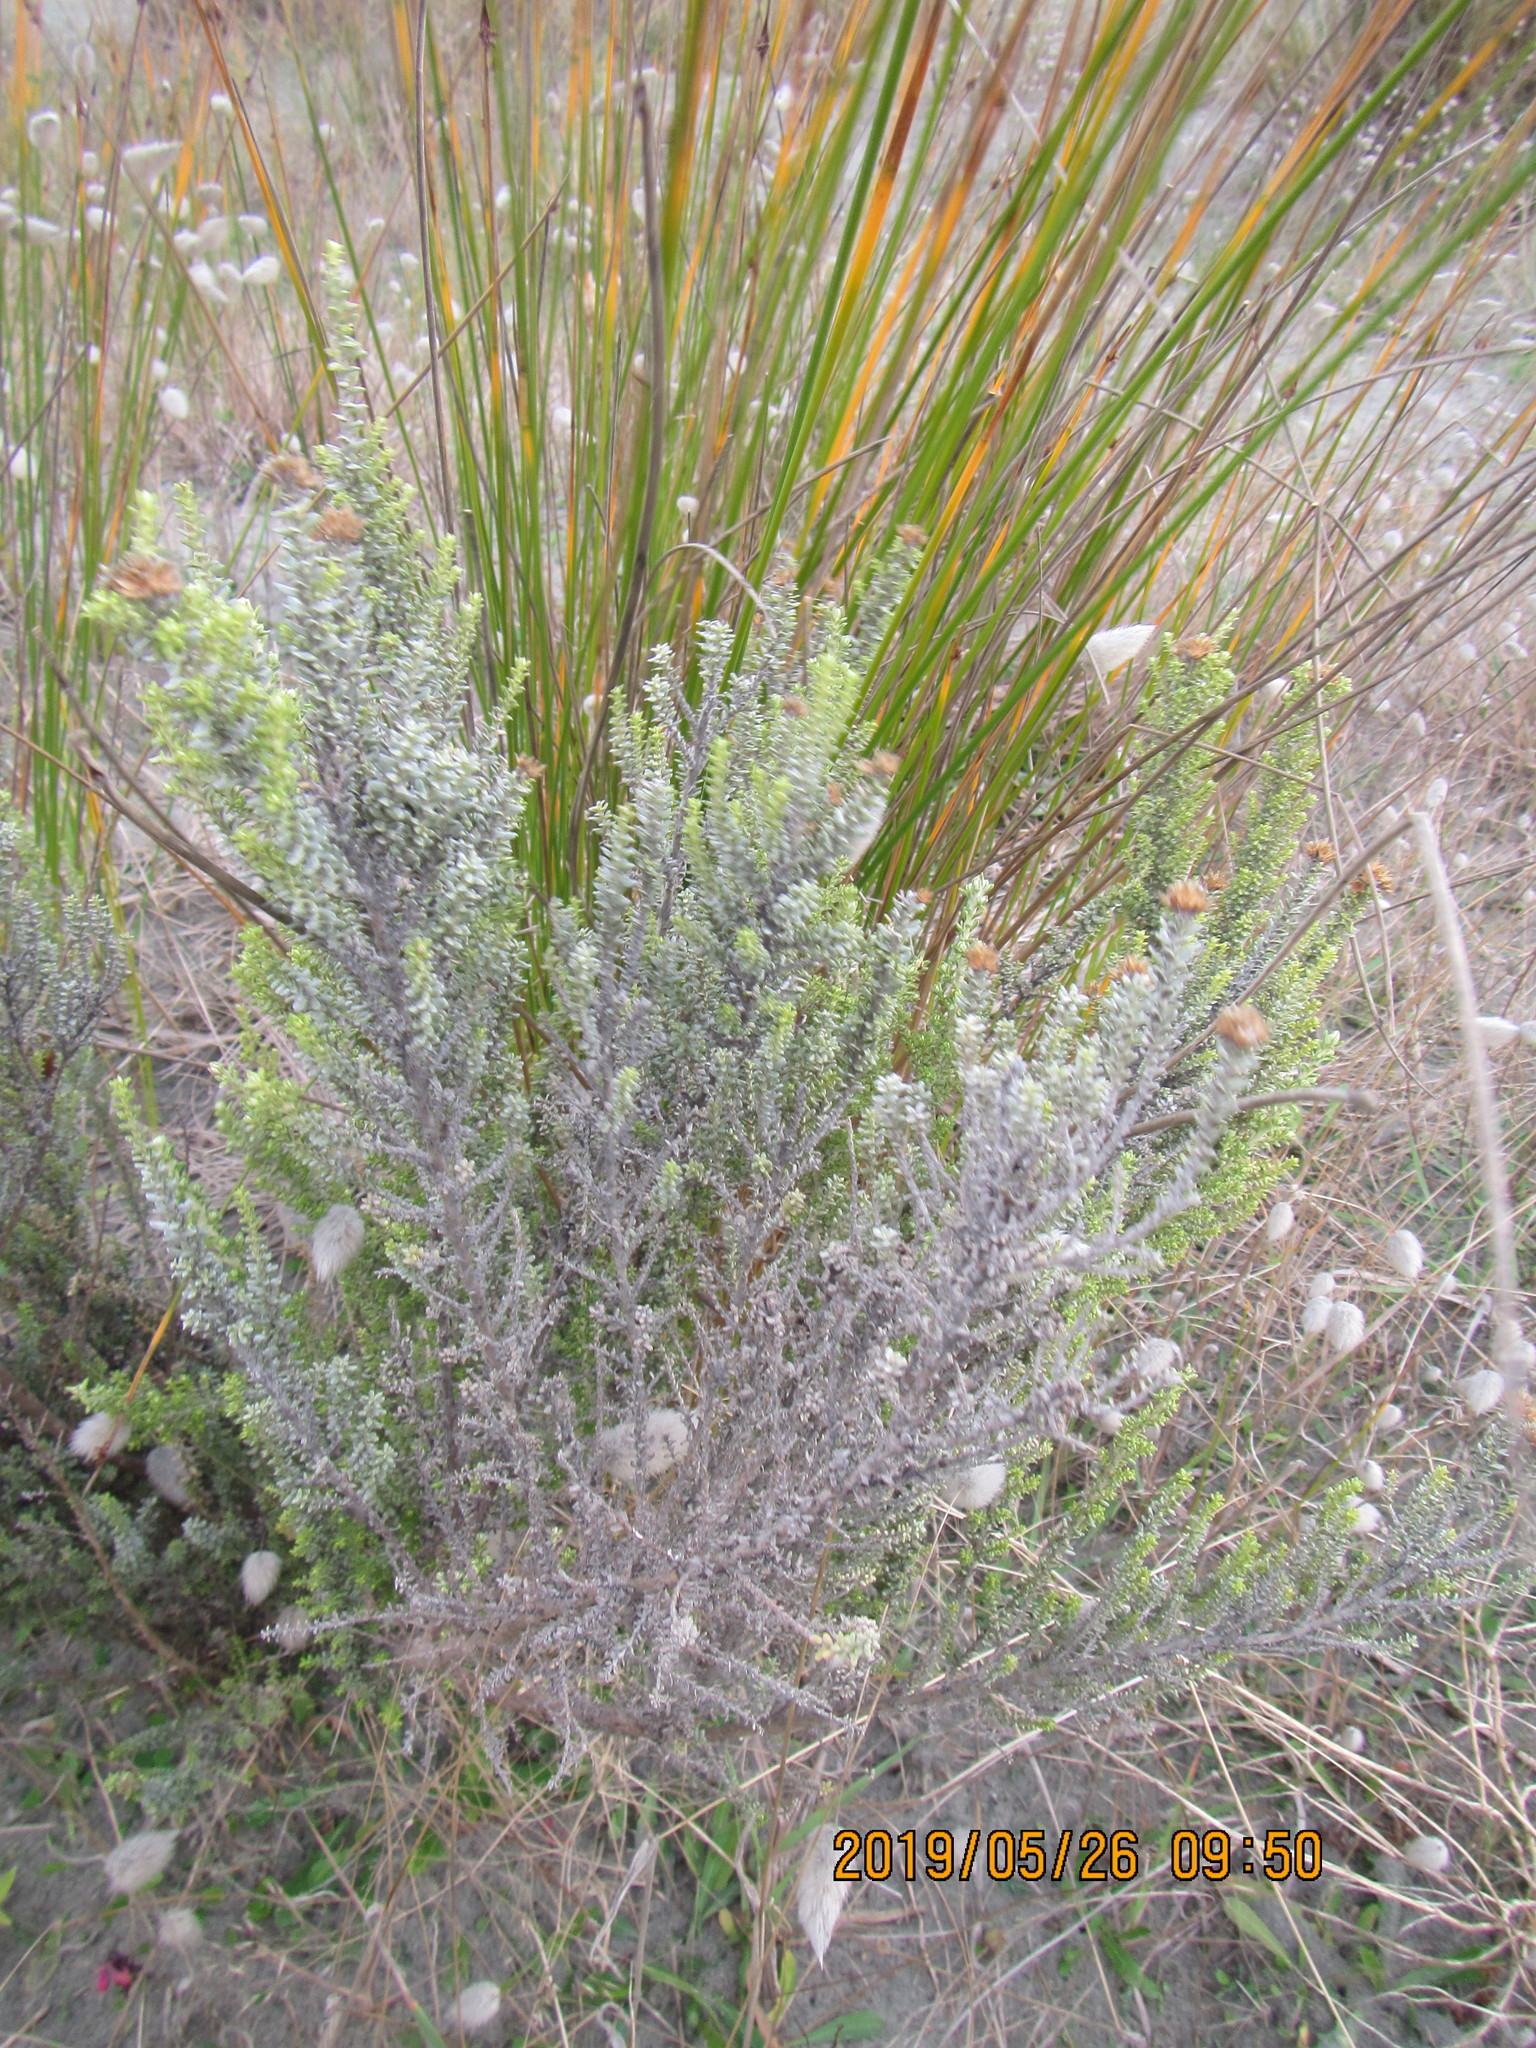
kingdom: Plantae
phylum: Tracheophyta
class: Magnoliopsida
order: Asterales
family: Asteraceae
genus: Ozothamnus
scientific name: Ozothamnus leptophyllus
